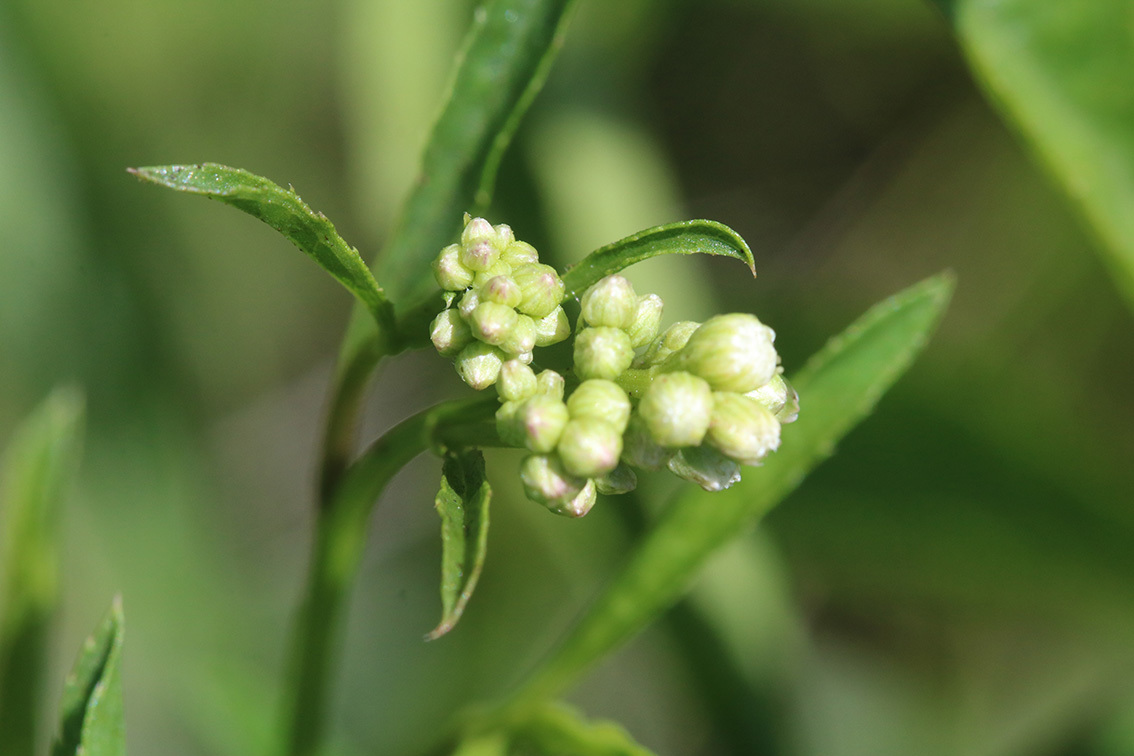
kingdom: Plantae
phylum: Tracheophyta
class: Magnoliopsida
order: Asterales
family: Asteraceae
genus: Baccharis
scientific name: Baccharis glutinosa
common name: Saltmarsh baccharis
